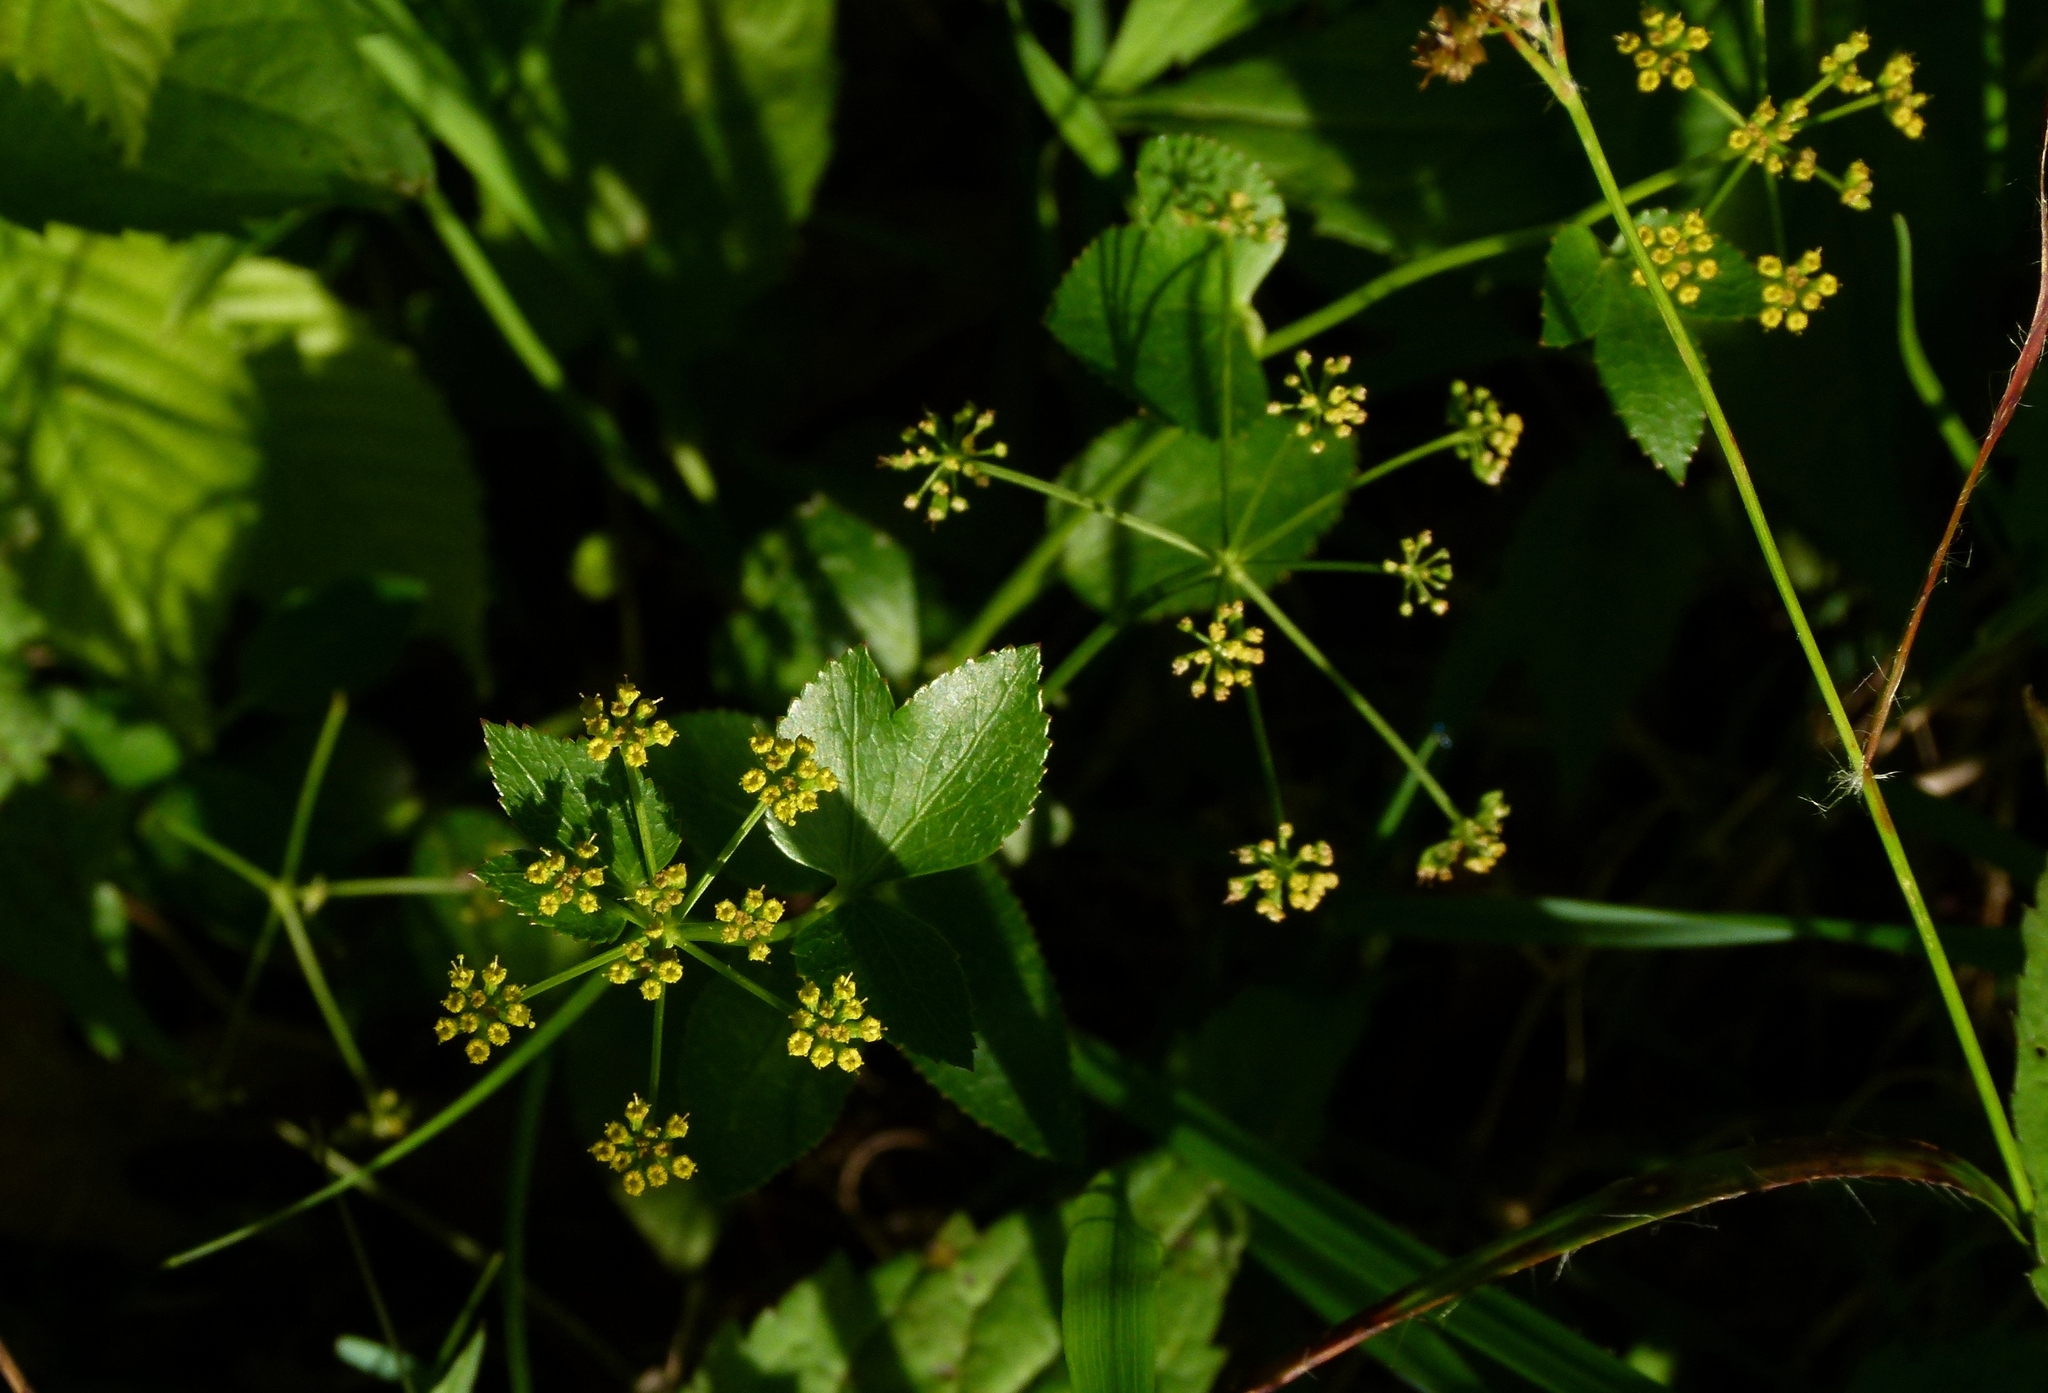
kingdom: Plantae
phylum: Tracheophyta
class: Magnoliopsida
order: Apiales
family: Apiaceae
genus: Thaspium
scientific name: Thaspium trifoliatum
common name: Purple meadow-parsnip
